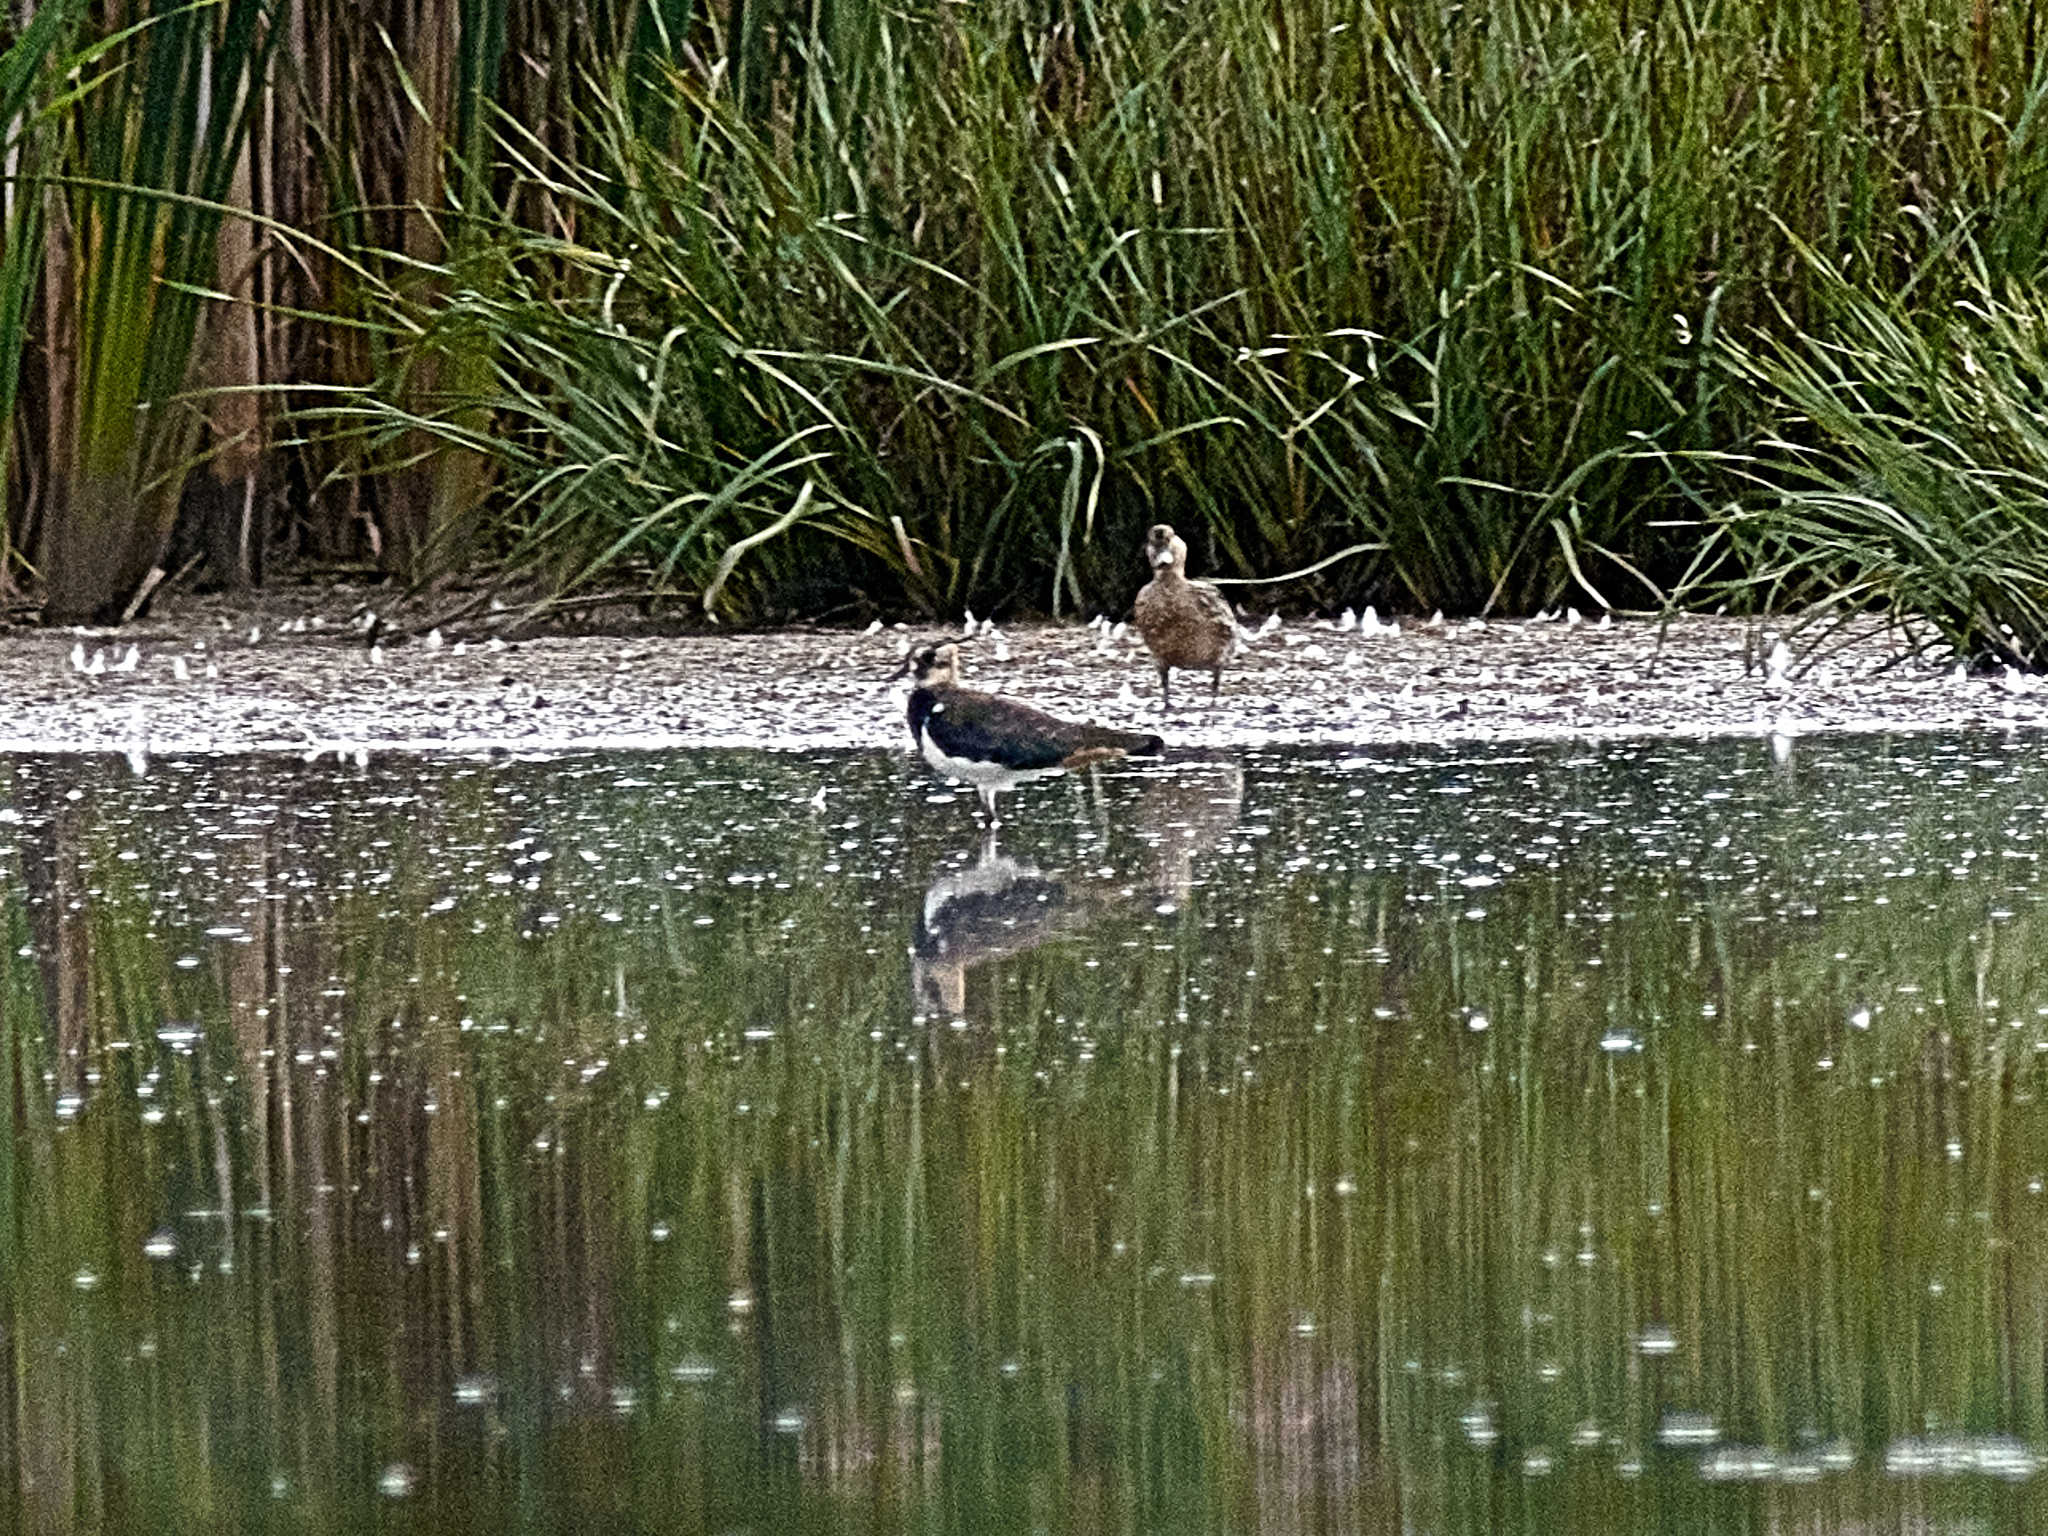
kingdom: Animalia
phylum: Chordata
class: Aves
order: Charadriiformes
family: Charadriidae
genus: Vanellus
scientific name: Vanellus vanellus
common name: Northern lapwing
